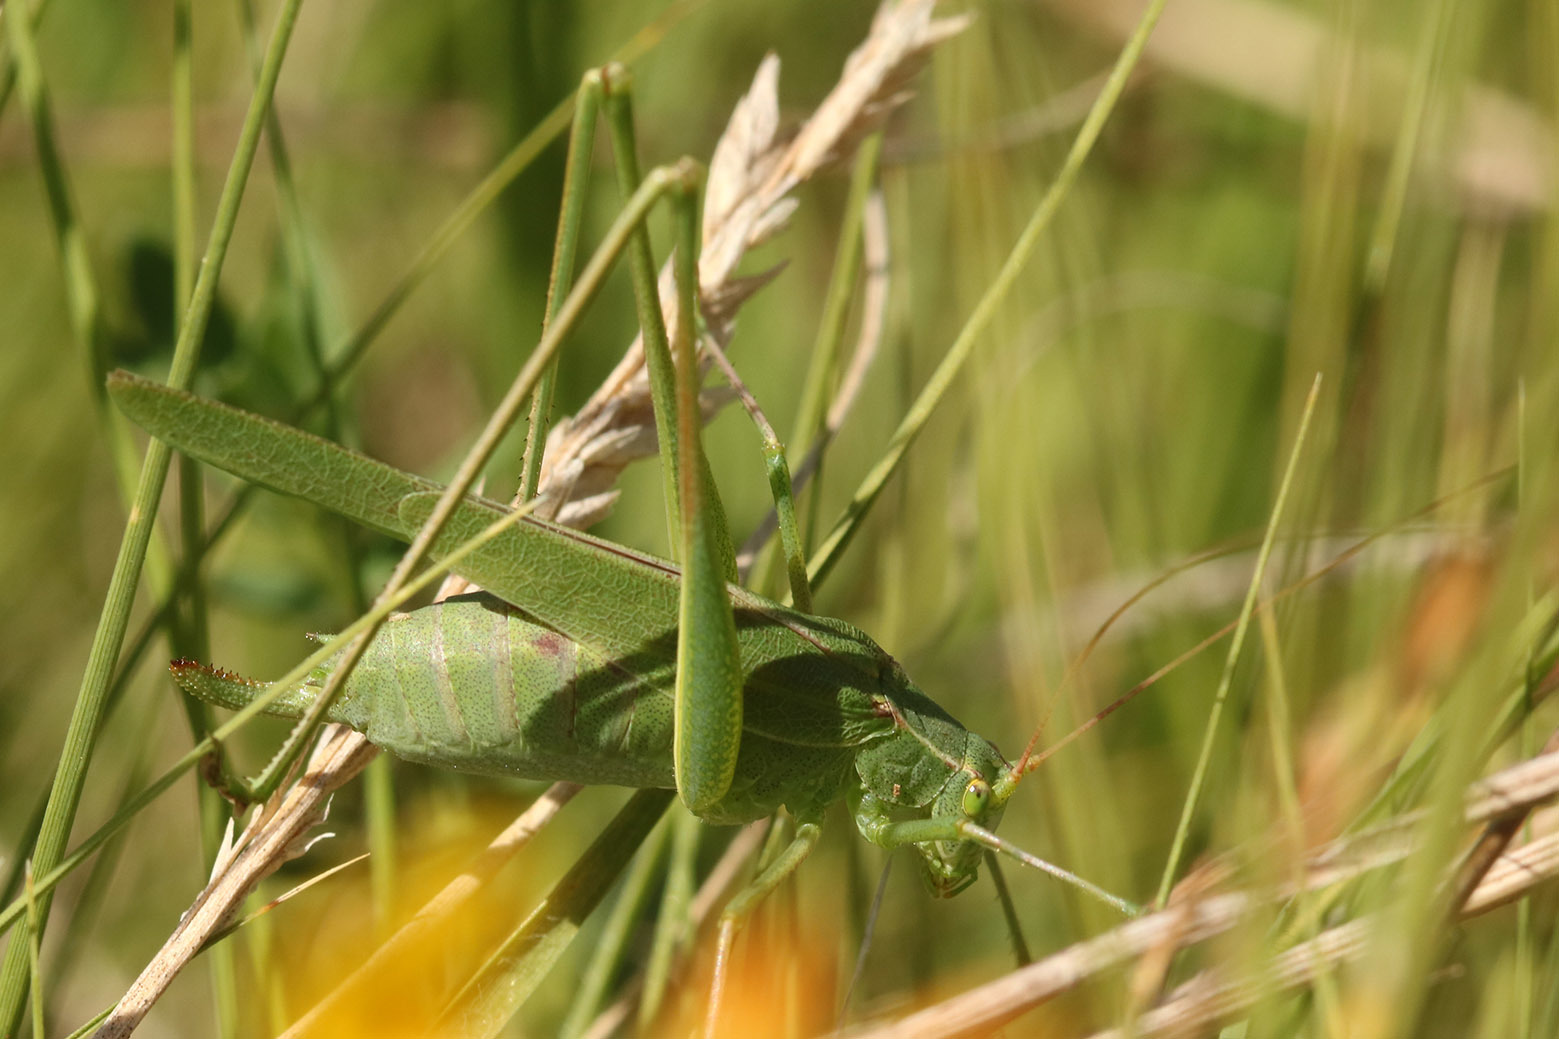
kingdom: Animalia
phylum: Arthropoda
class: Insecta
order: Orthoptera
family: Tettigoniidae
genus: Burgilis
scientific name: Burgilis curta
